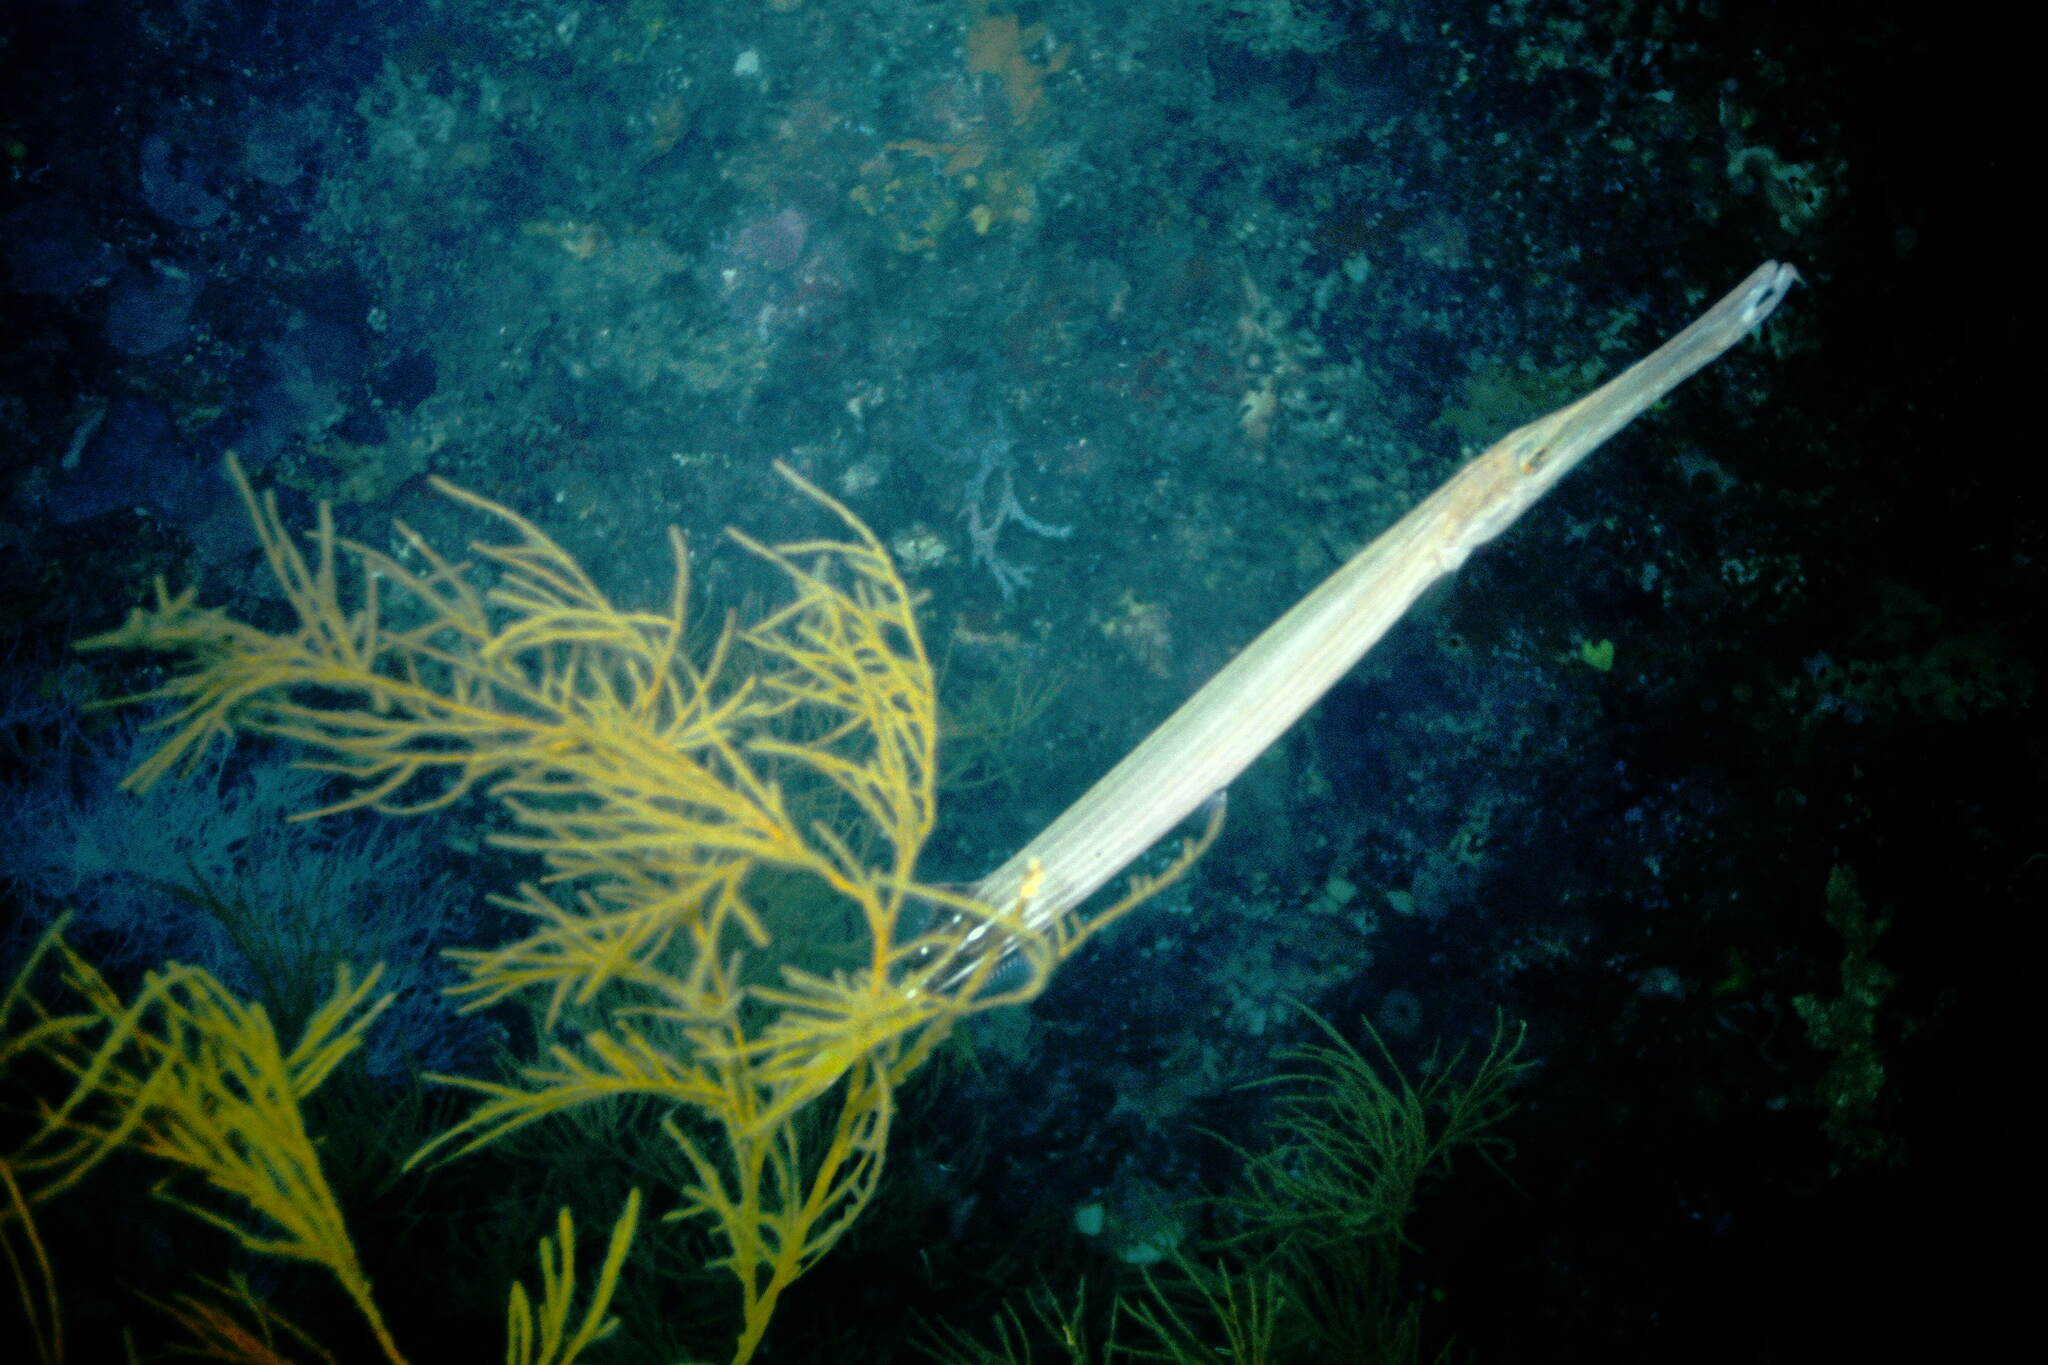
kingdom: Animalia
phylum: Chordata
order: Syngnathiformes
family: Aulostomidae
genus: Aulostomus
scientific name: Aulostomus chinensis
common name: Chinese trumpetfish
